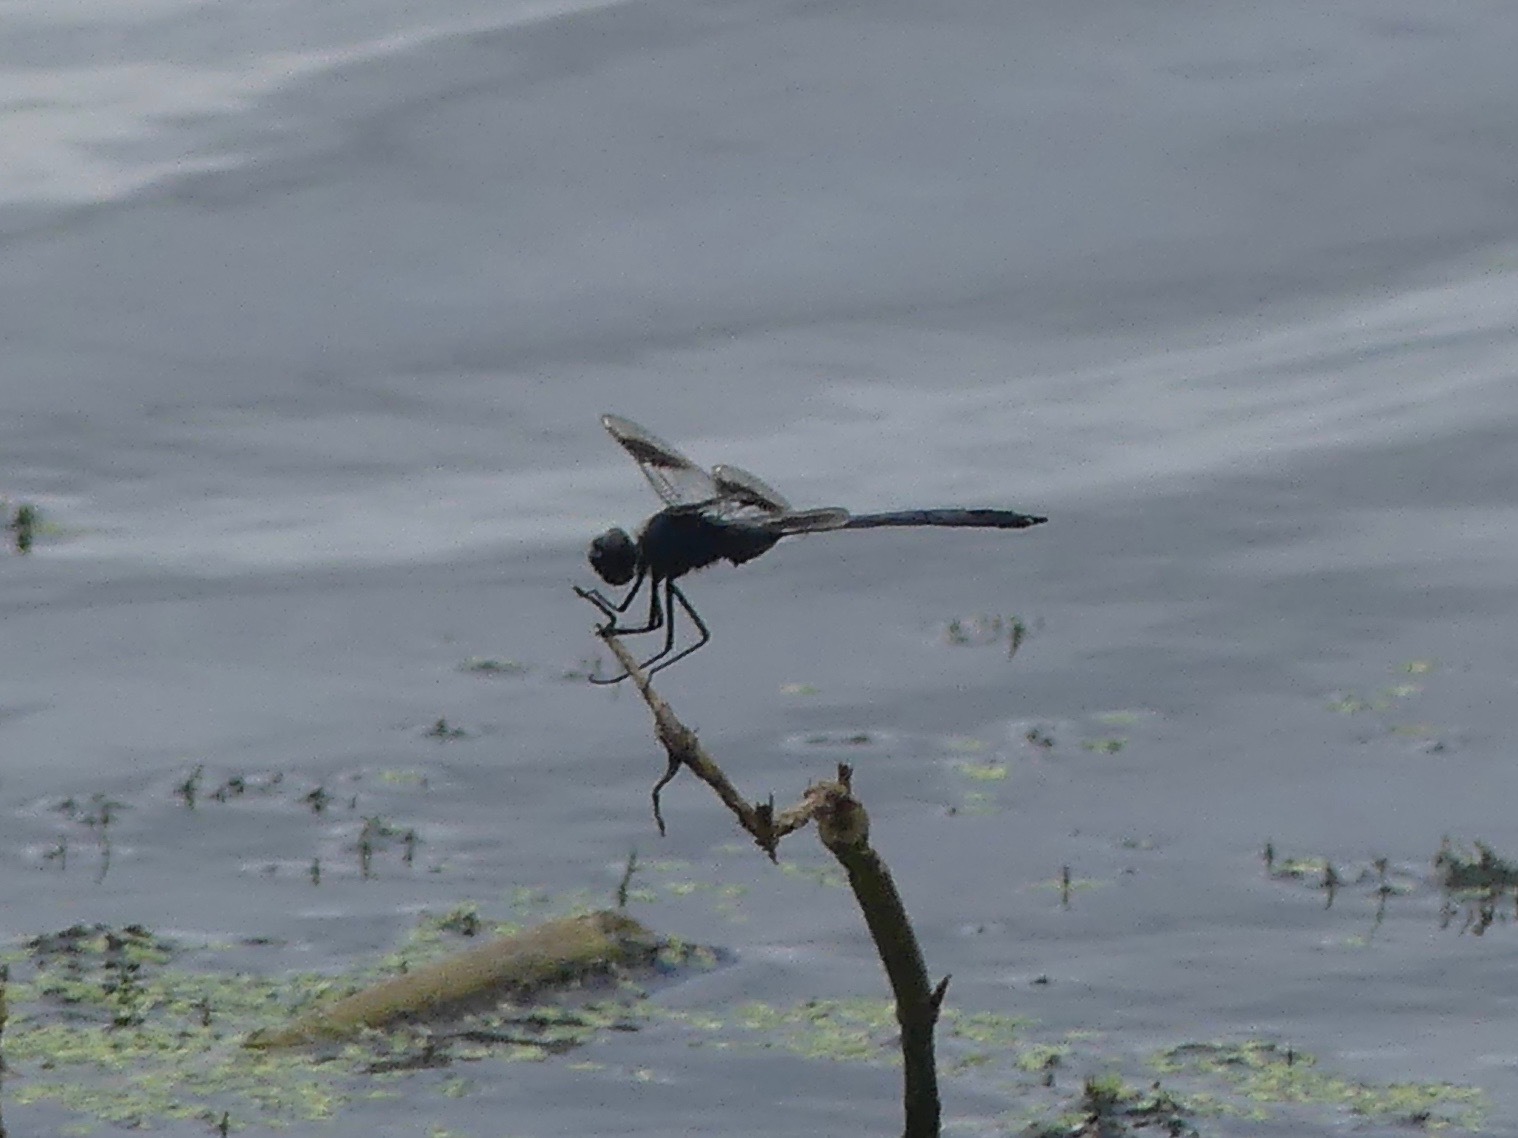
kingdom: Animalia
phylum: Arthropoda
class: Insecta
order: Odonata
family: Libellulidae
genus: Brachymesia
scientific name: Brachymesia gravida
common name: Four-spotted pennant
